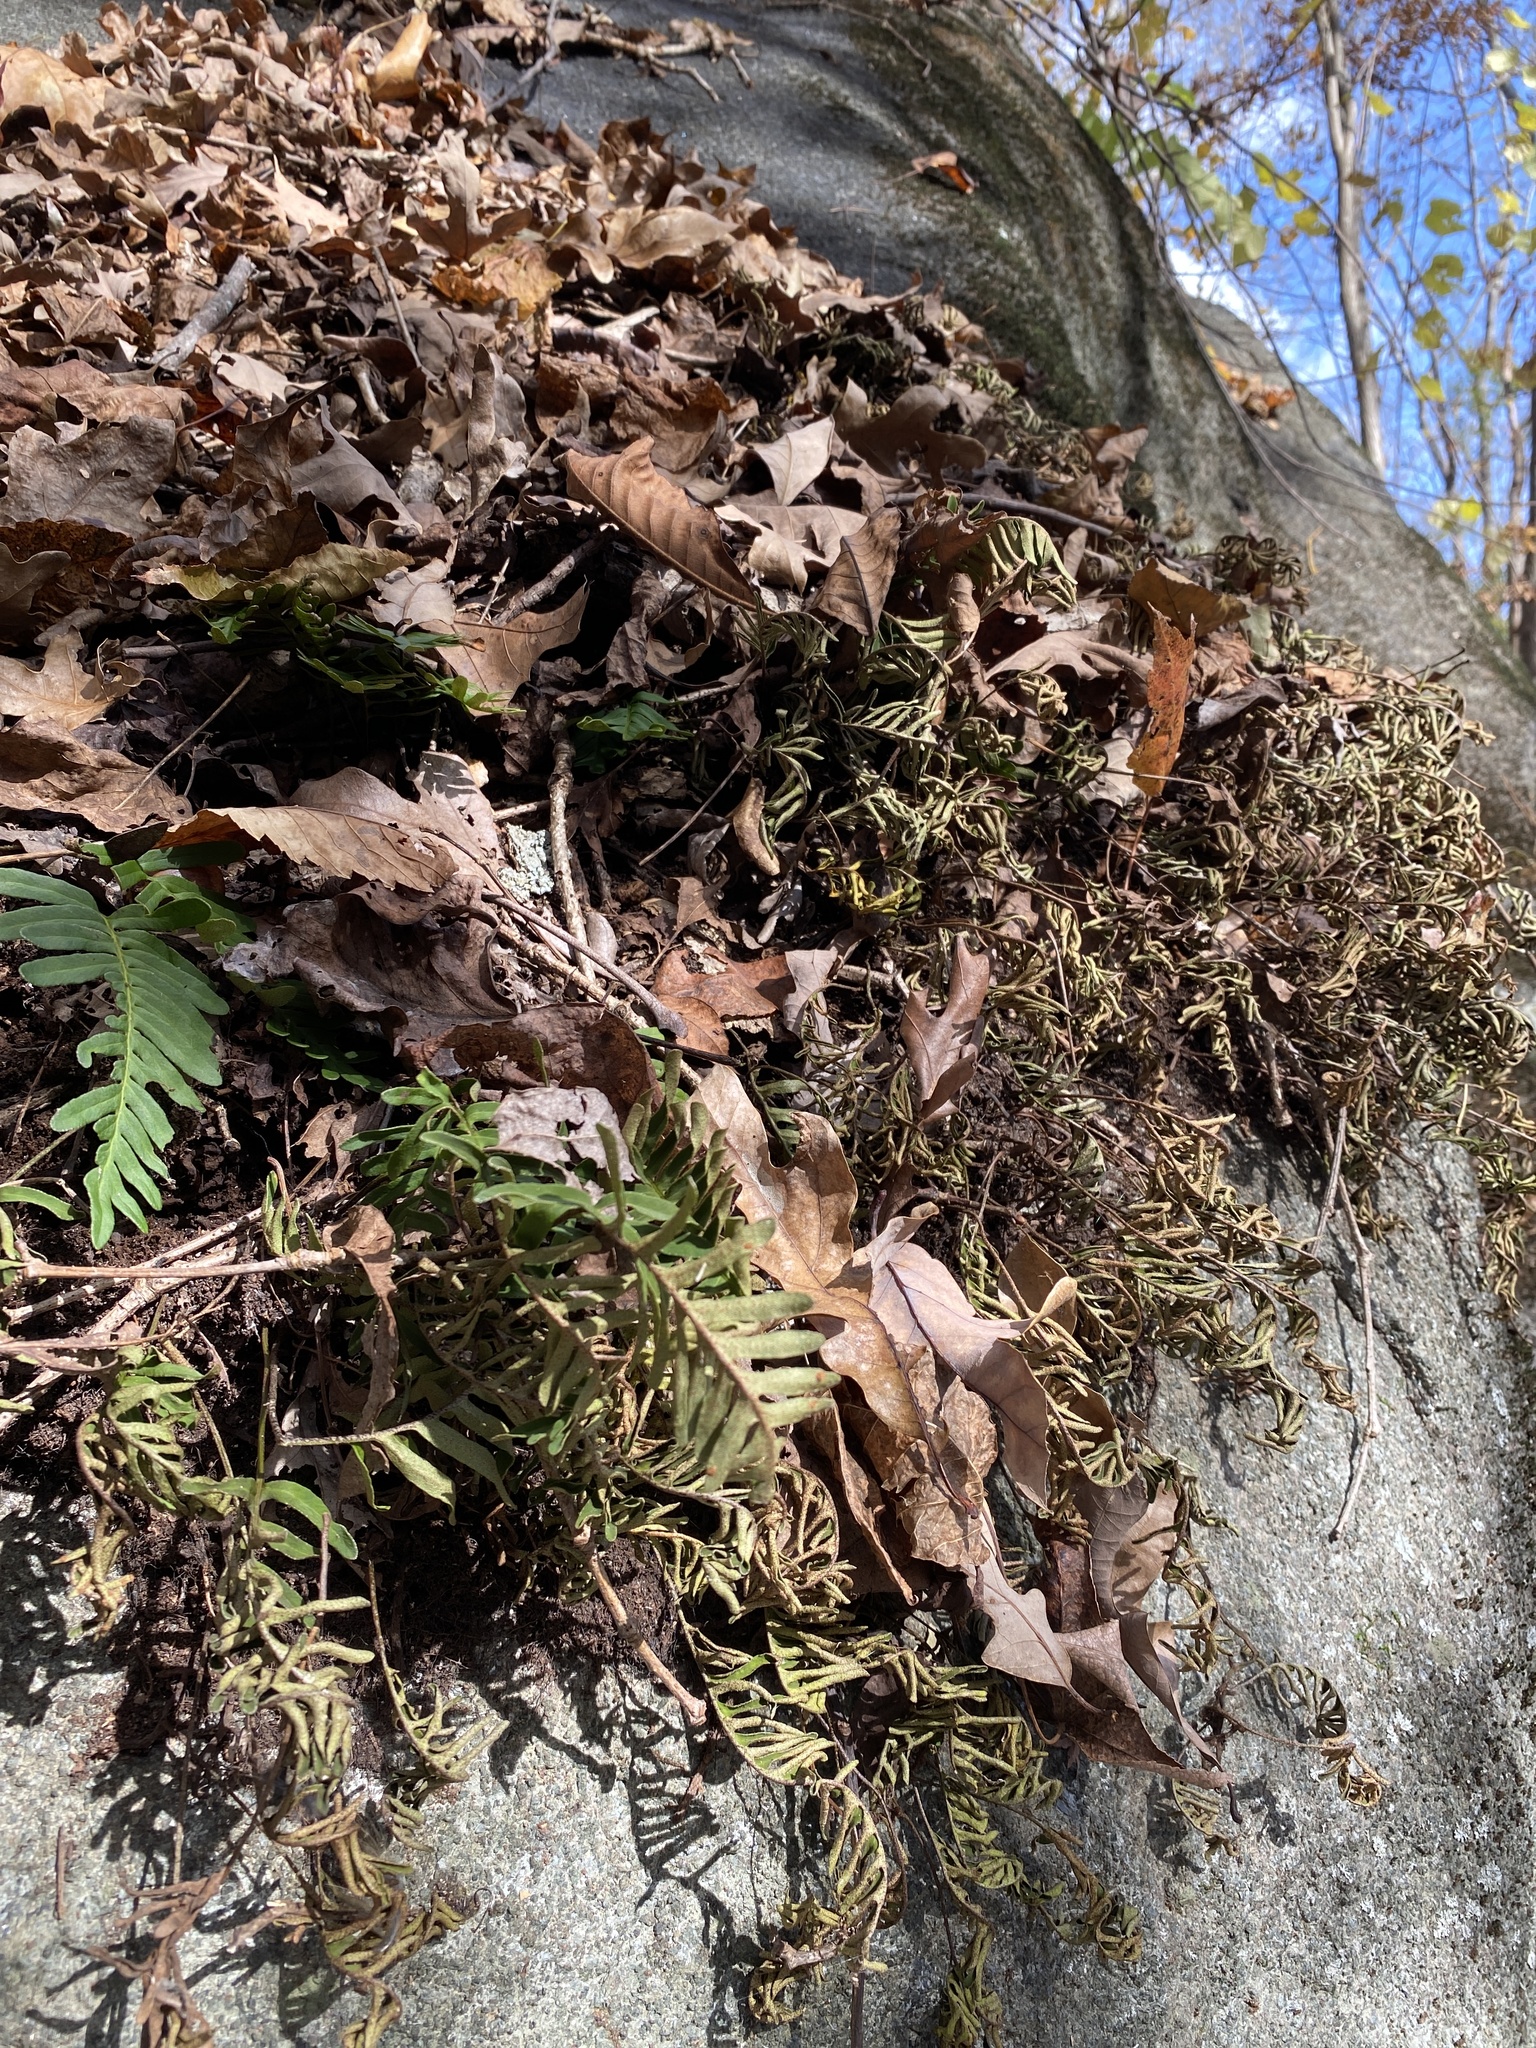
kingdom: Plantae
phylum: Tracheophyta
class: Polypodiopsida
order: Polypodiales
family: Polypodiaceae
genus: Pleopeltis
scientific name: Pleopeltis michauxiana
